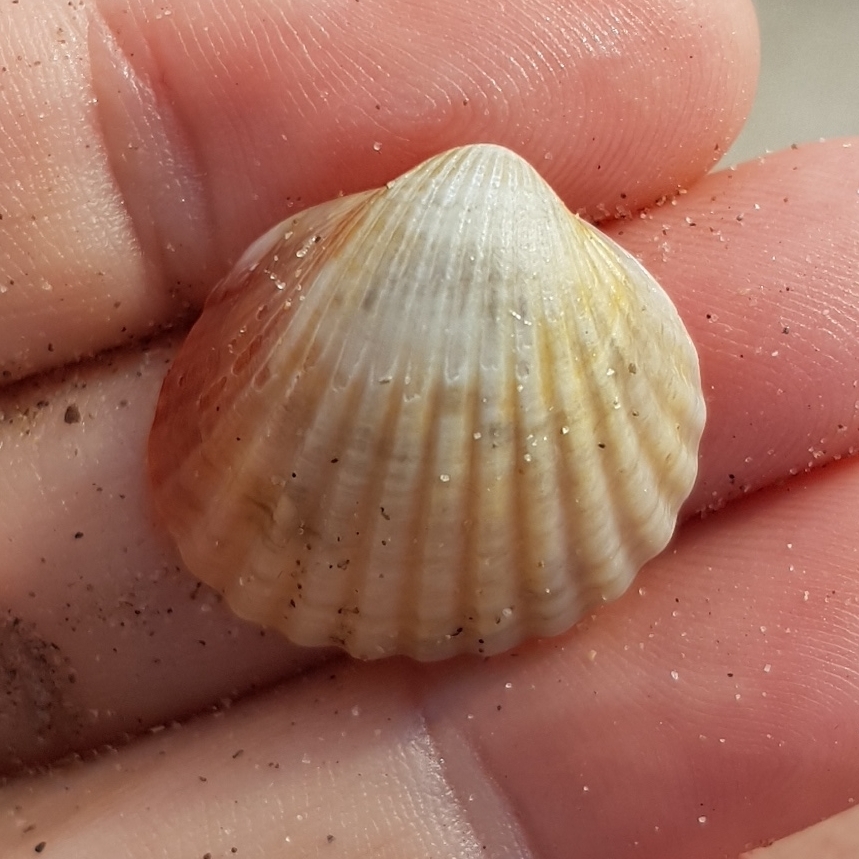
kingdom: Animalia
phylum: Mollusca
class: Bivalvia
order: Cardiida
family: Cardiidae
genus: Cerastoderma
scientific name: Cerastoderma glaucum
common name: Lagoon cockle
